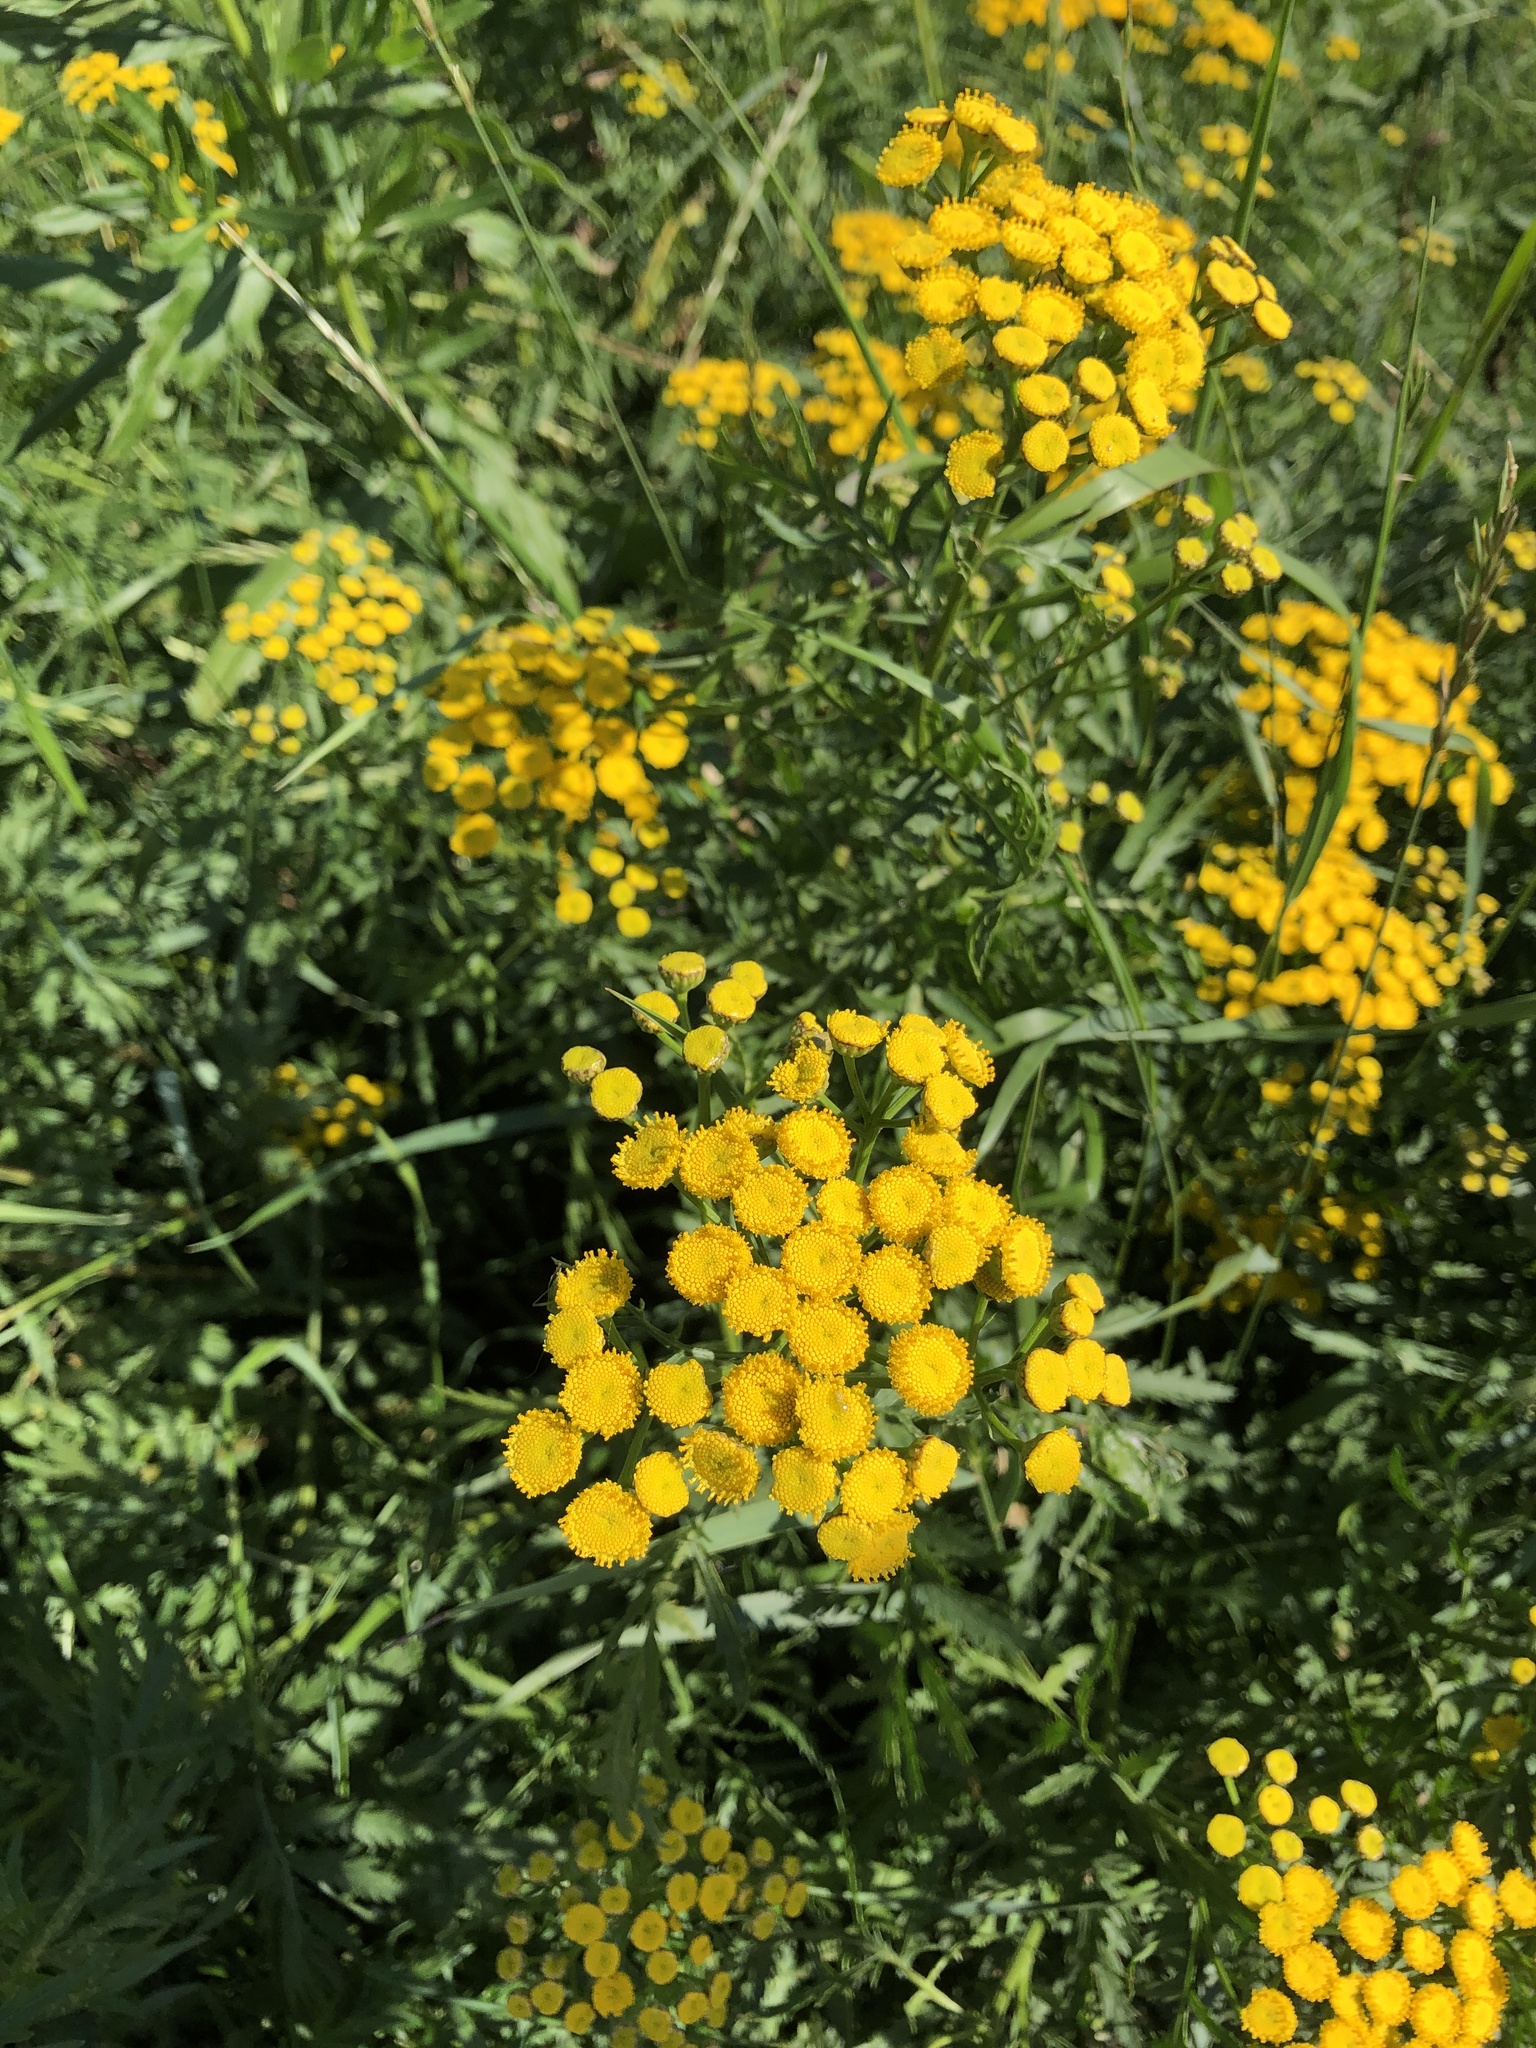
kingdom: Plantae
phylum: Tracheophyta
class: Magnoliopsida
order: Asterales
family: Asteraceae
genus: Tanacetum
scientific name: Tanacetum vulgare
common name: Common tansy
